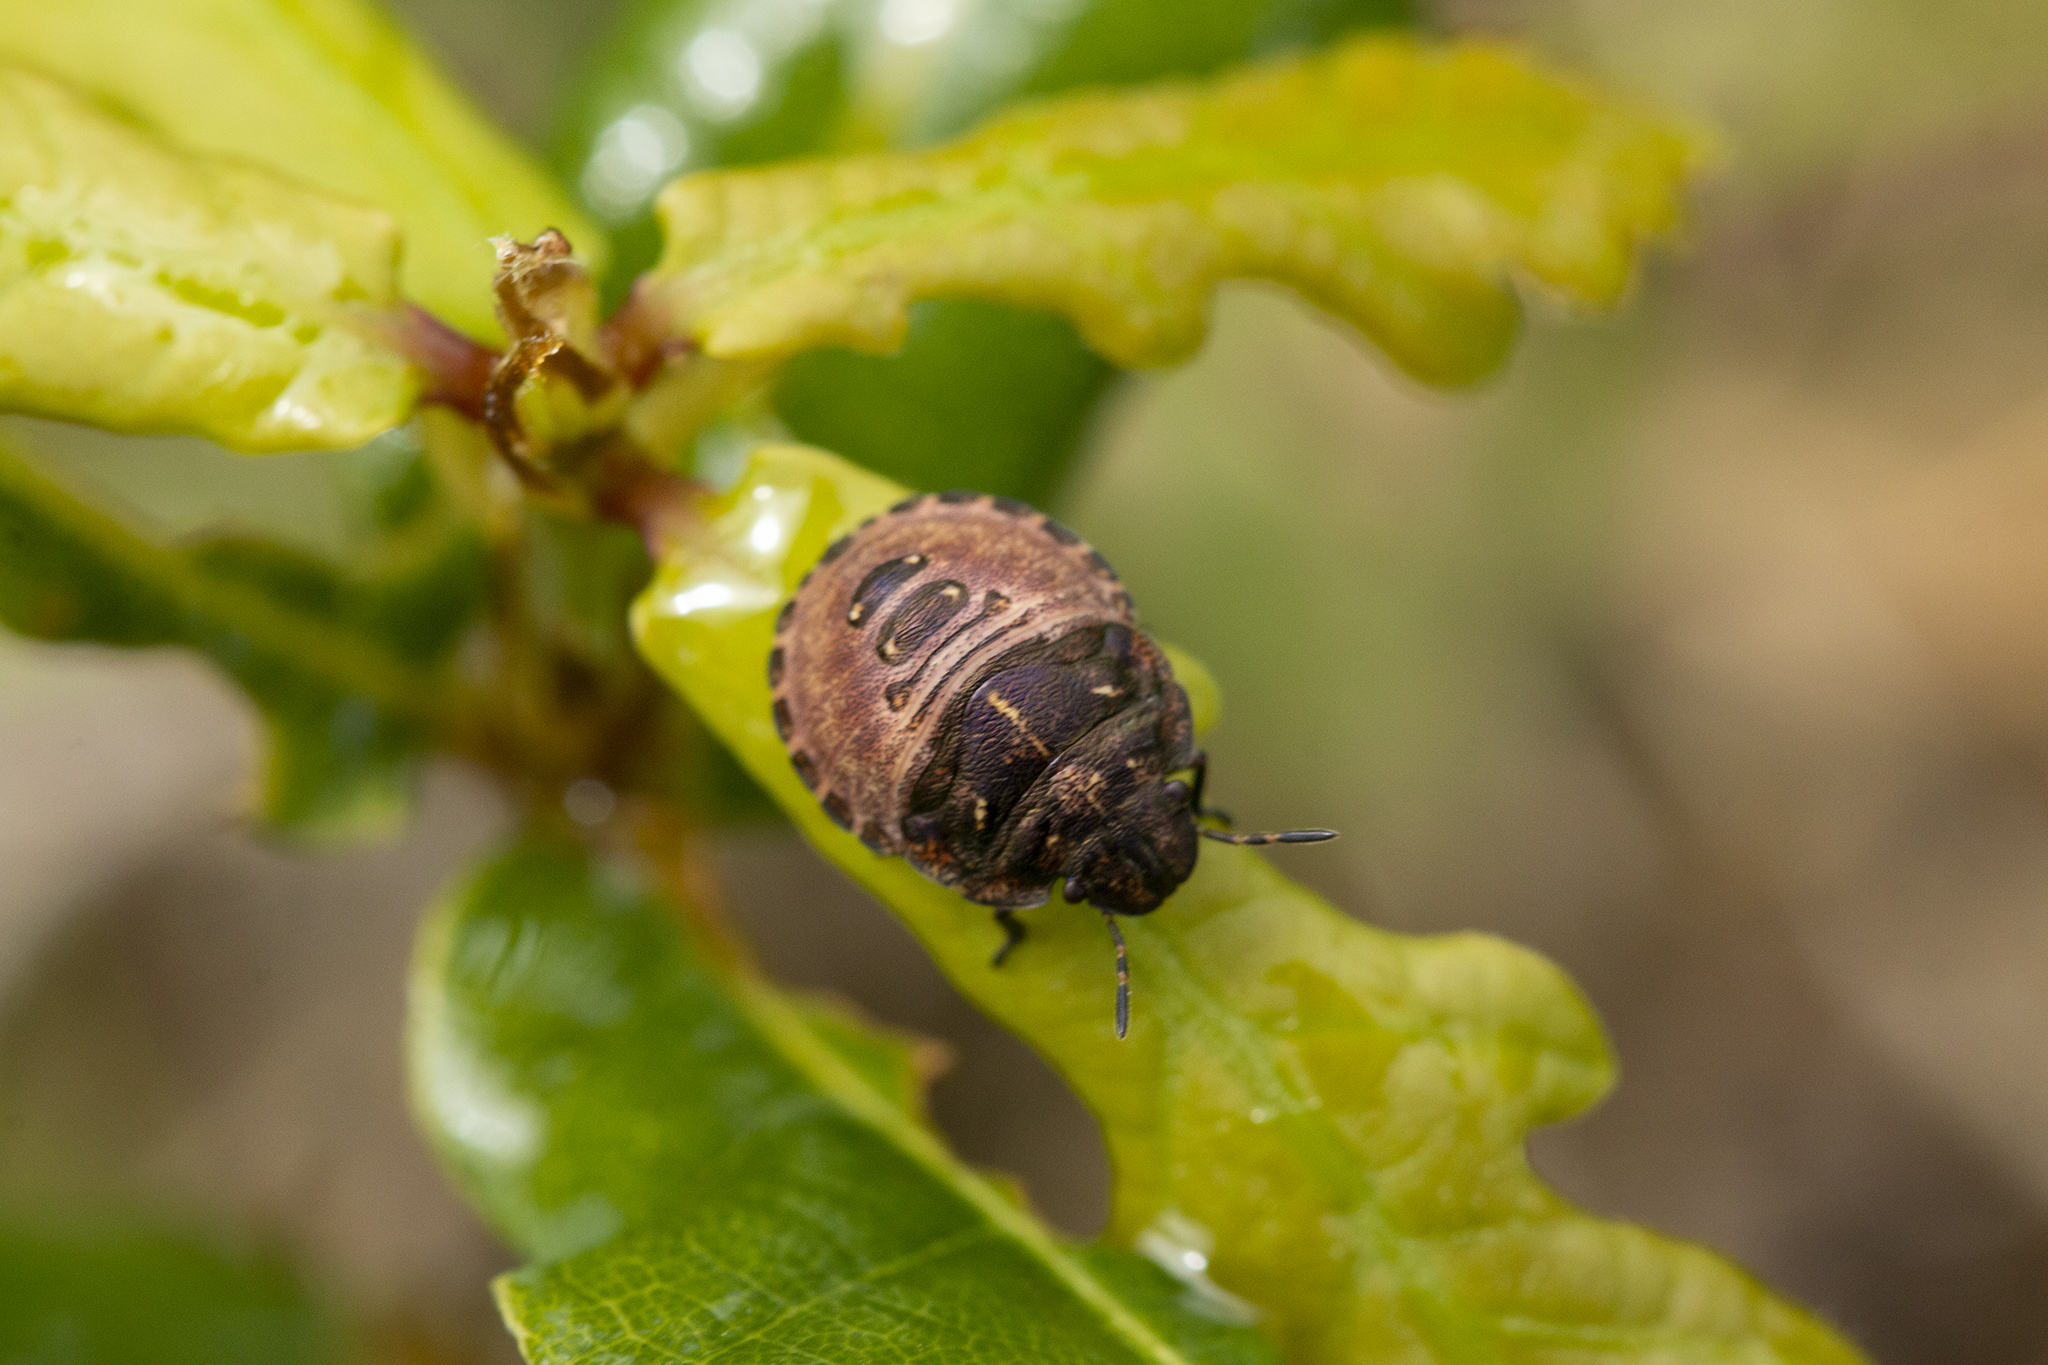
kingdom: Animalia
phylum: Arthropoda
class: Insecta
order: Hemiptera
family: Scutelleridae
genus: Eurygaster
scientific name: Eurygaster testudinaria
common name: Tortoise bug
